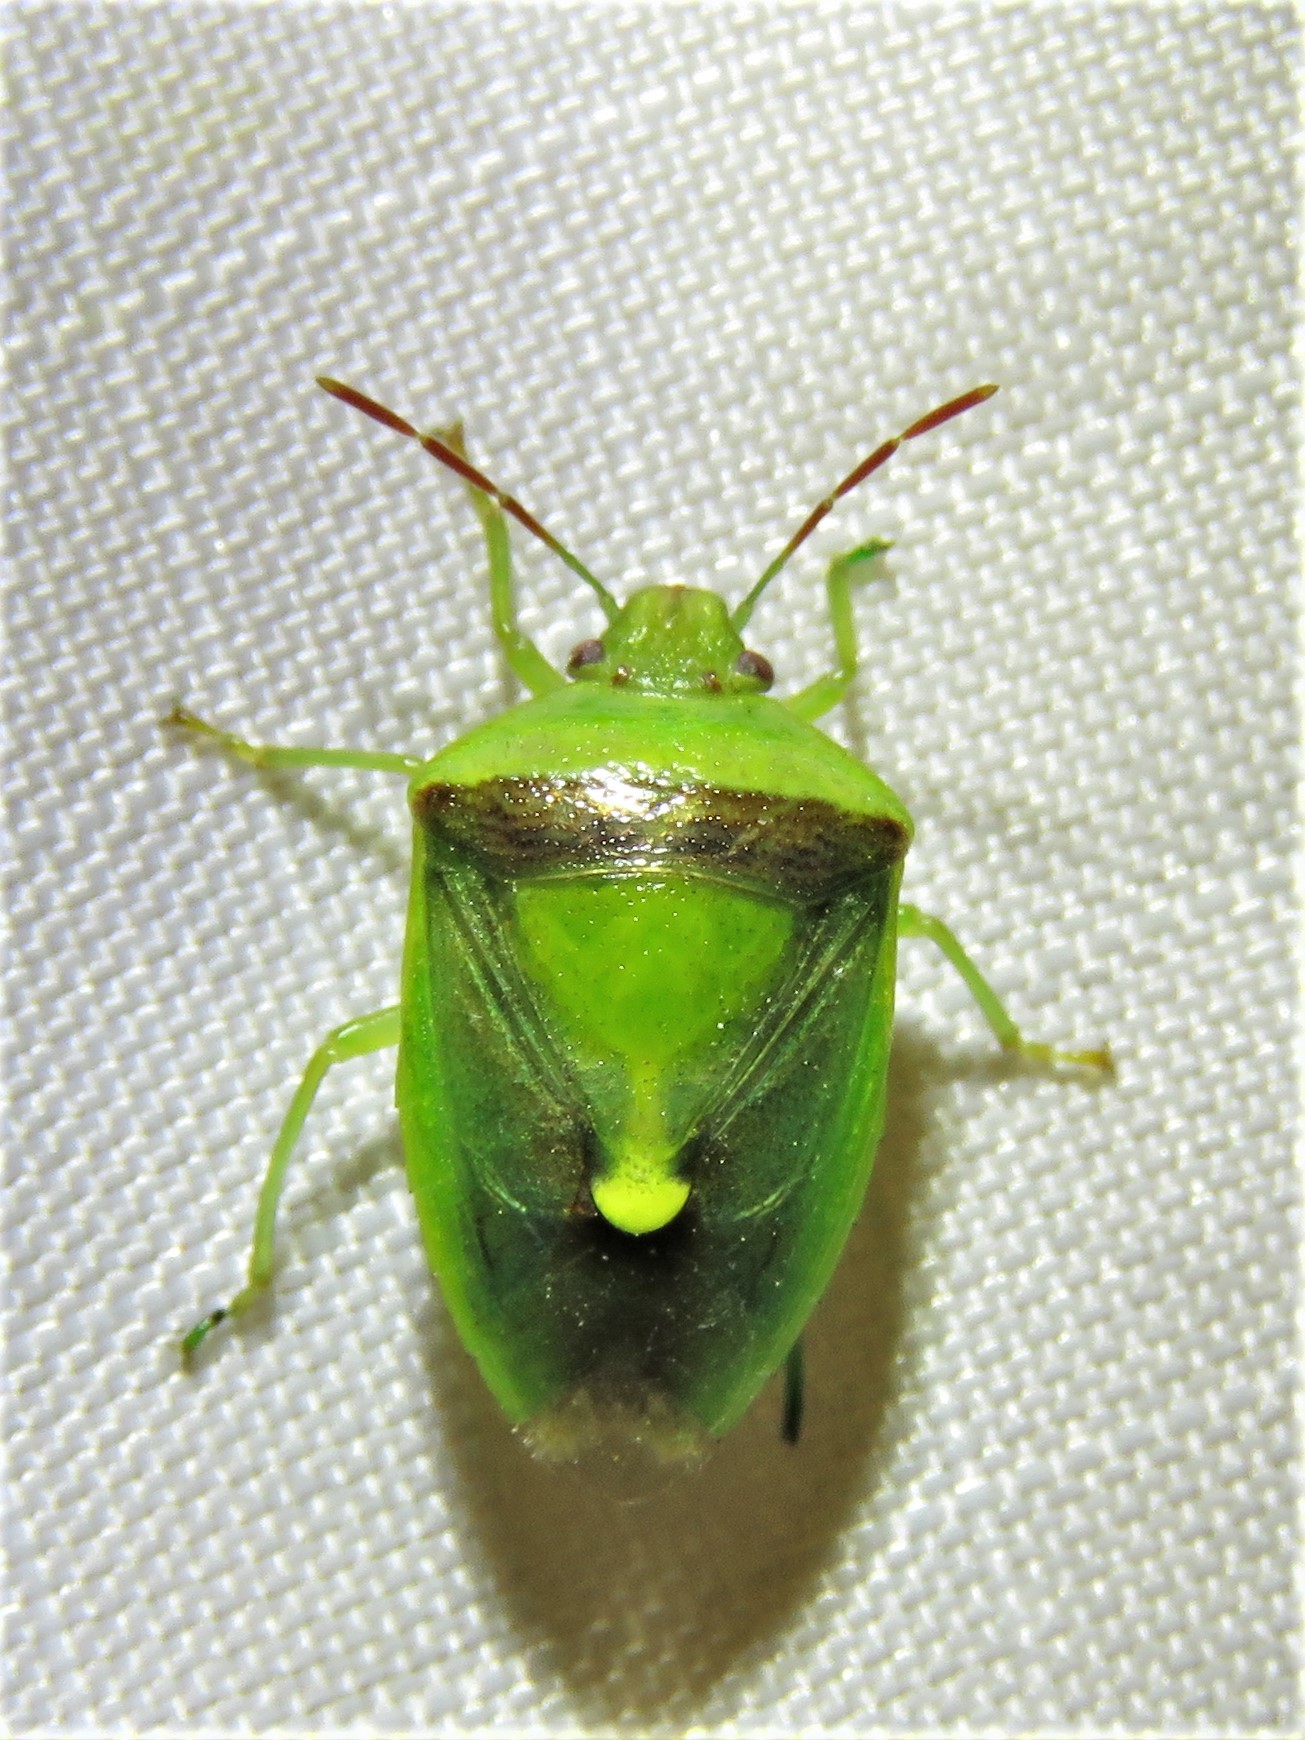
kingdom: Animalia
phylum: Arthropoda
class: Insecta
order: Hemiptera
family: Pentatomidae
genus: Banasa
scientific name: Banasa dimidiata
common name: Green burgundy stink bug
